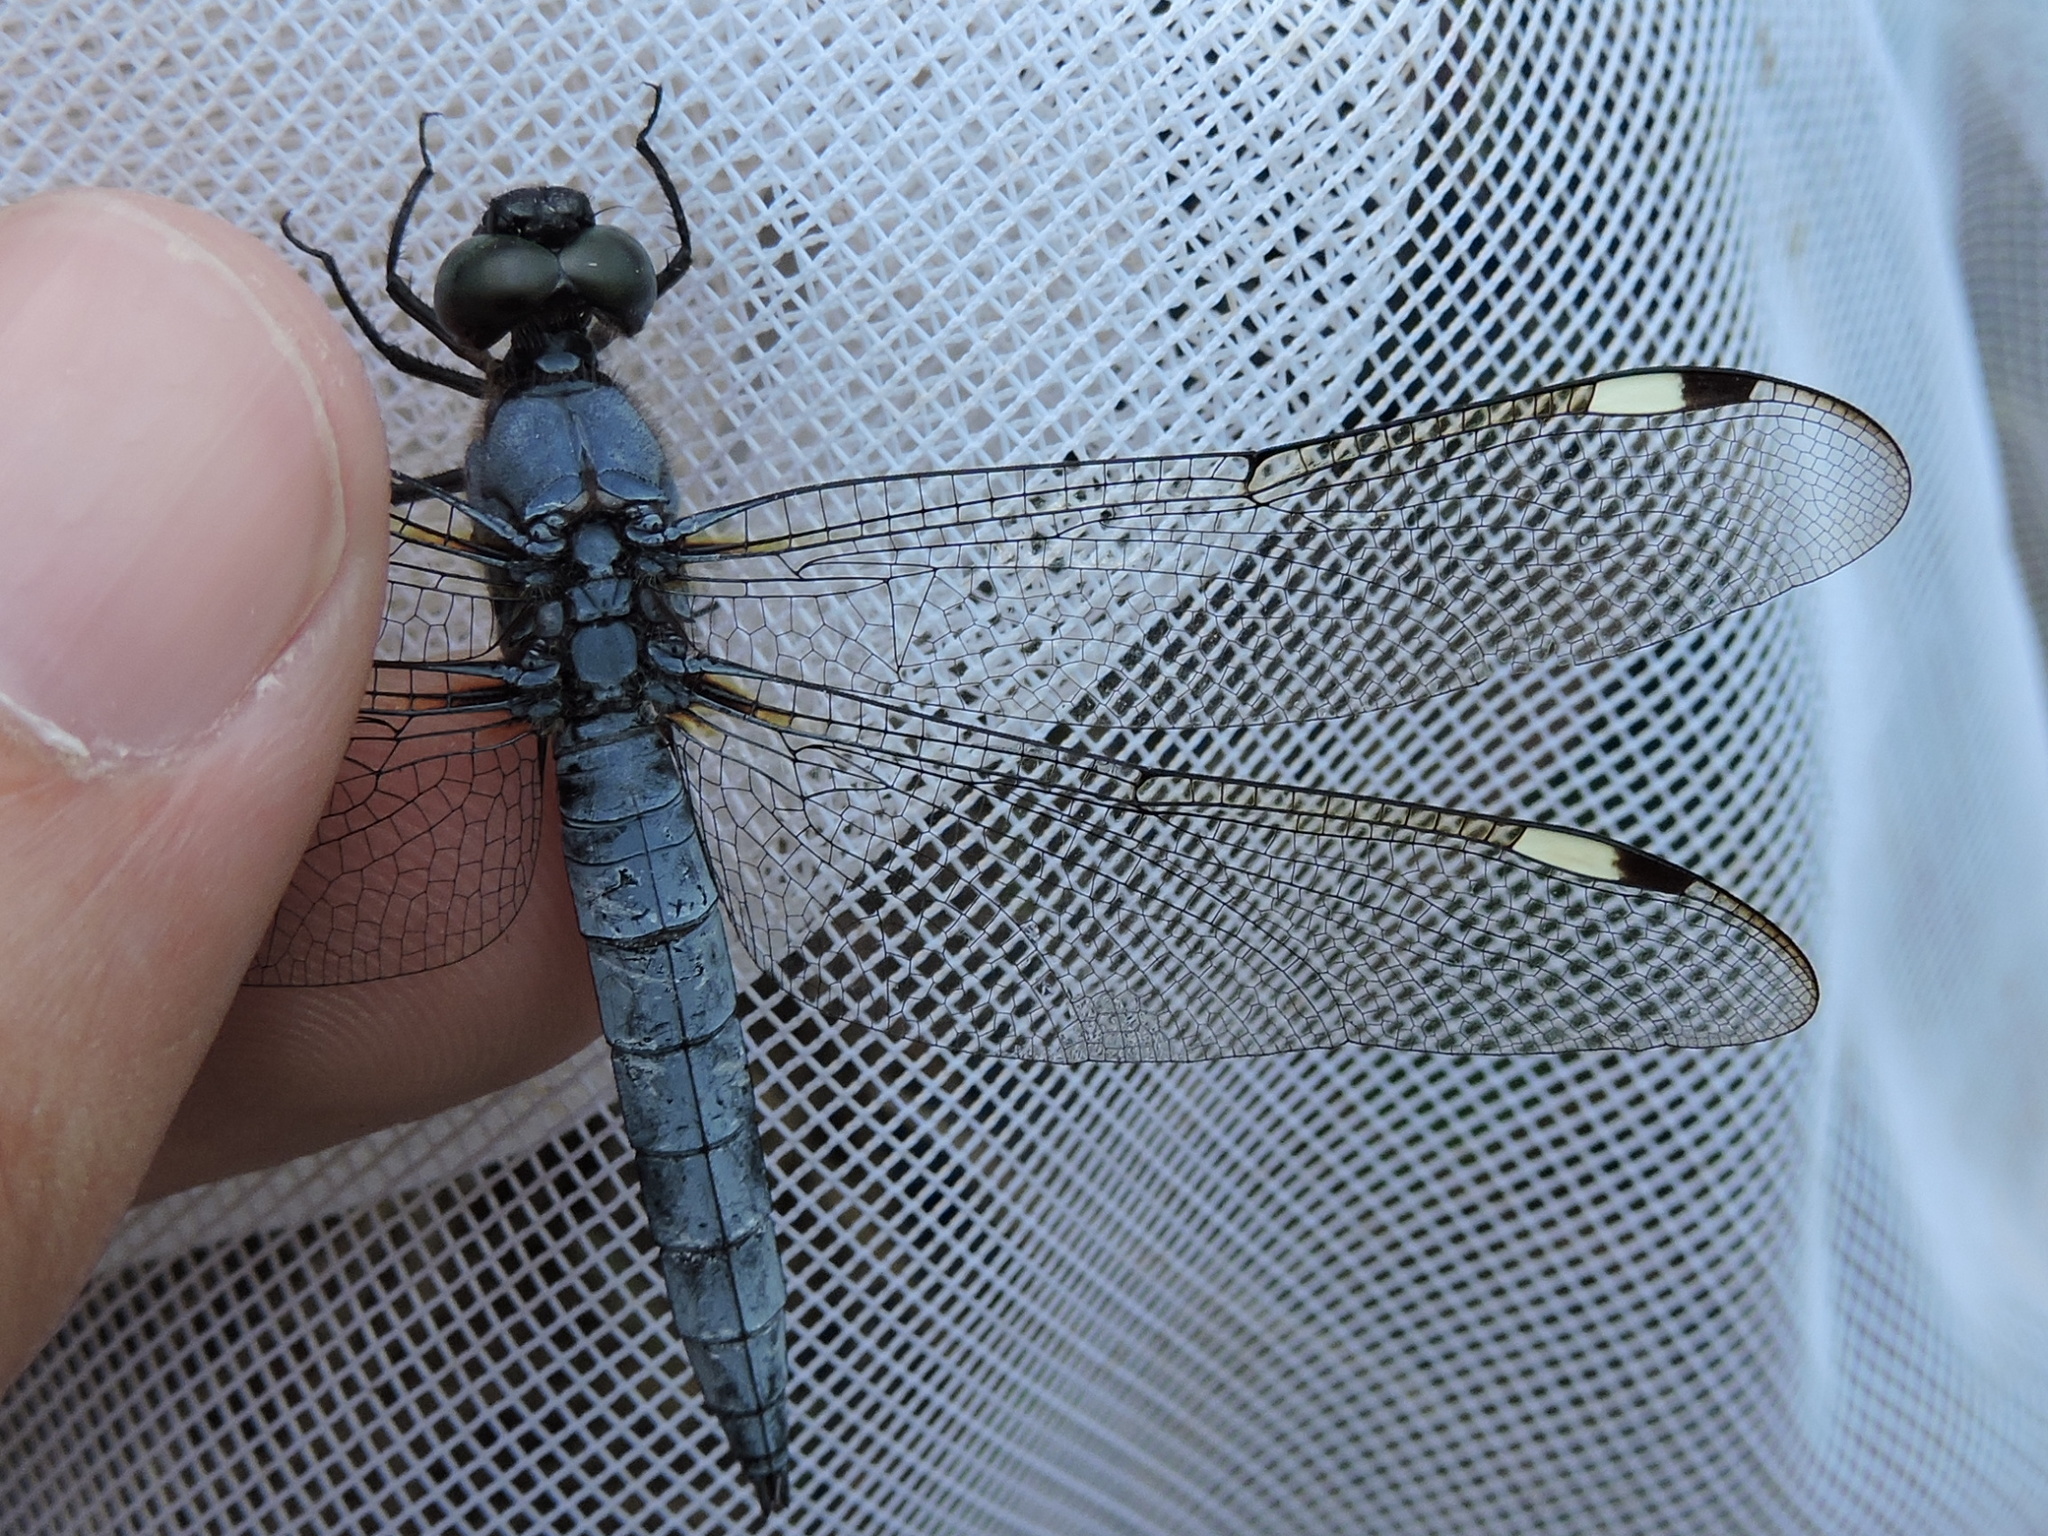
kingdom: Animalia
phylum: Arthropoda
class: Insecta
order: Odonata
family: Libellulidae
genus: Libellula
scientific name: Libellula cyanea
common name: Spangled skimmer
